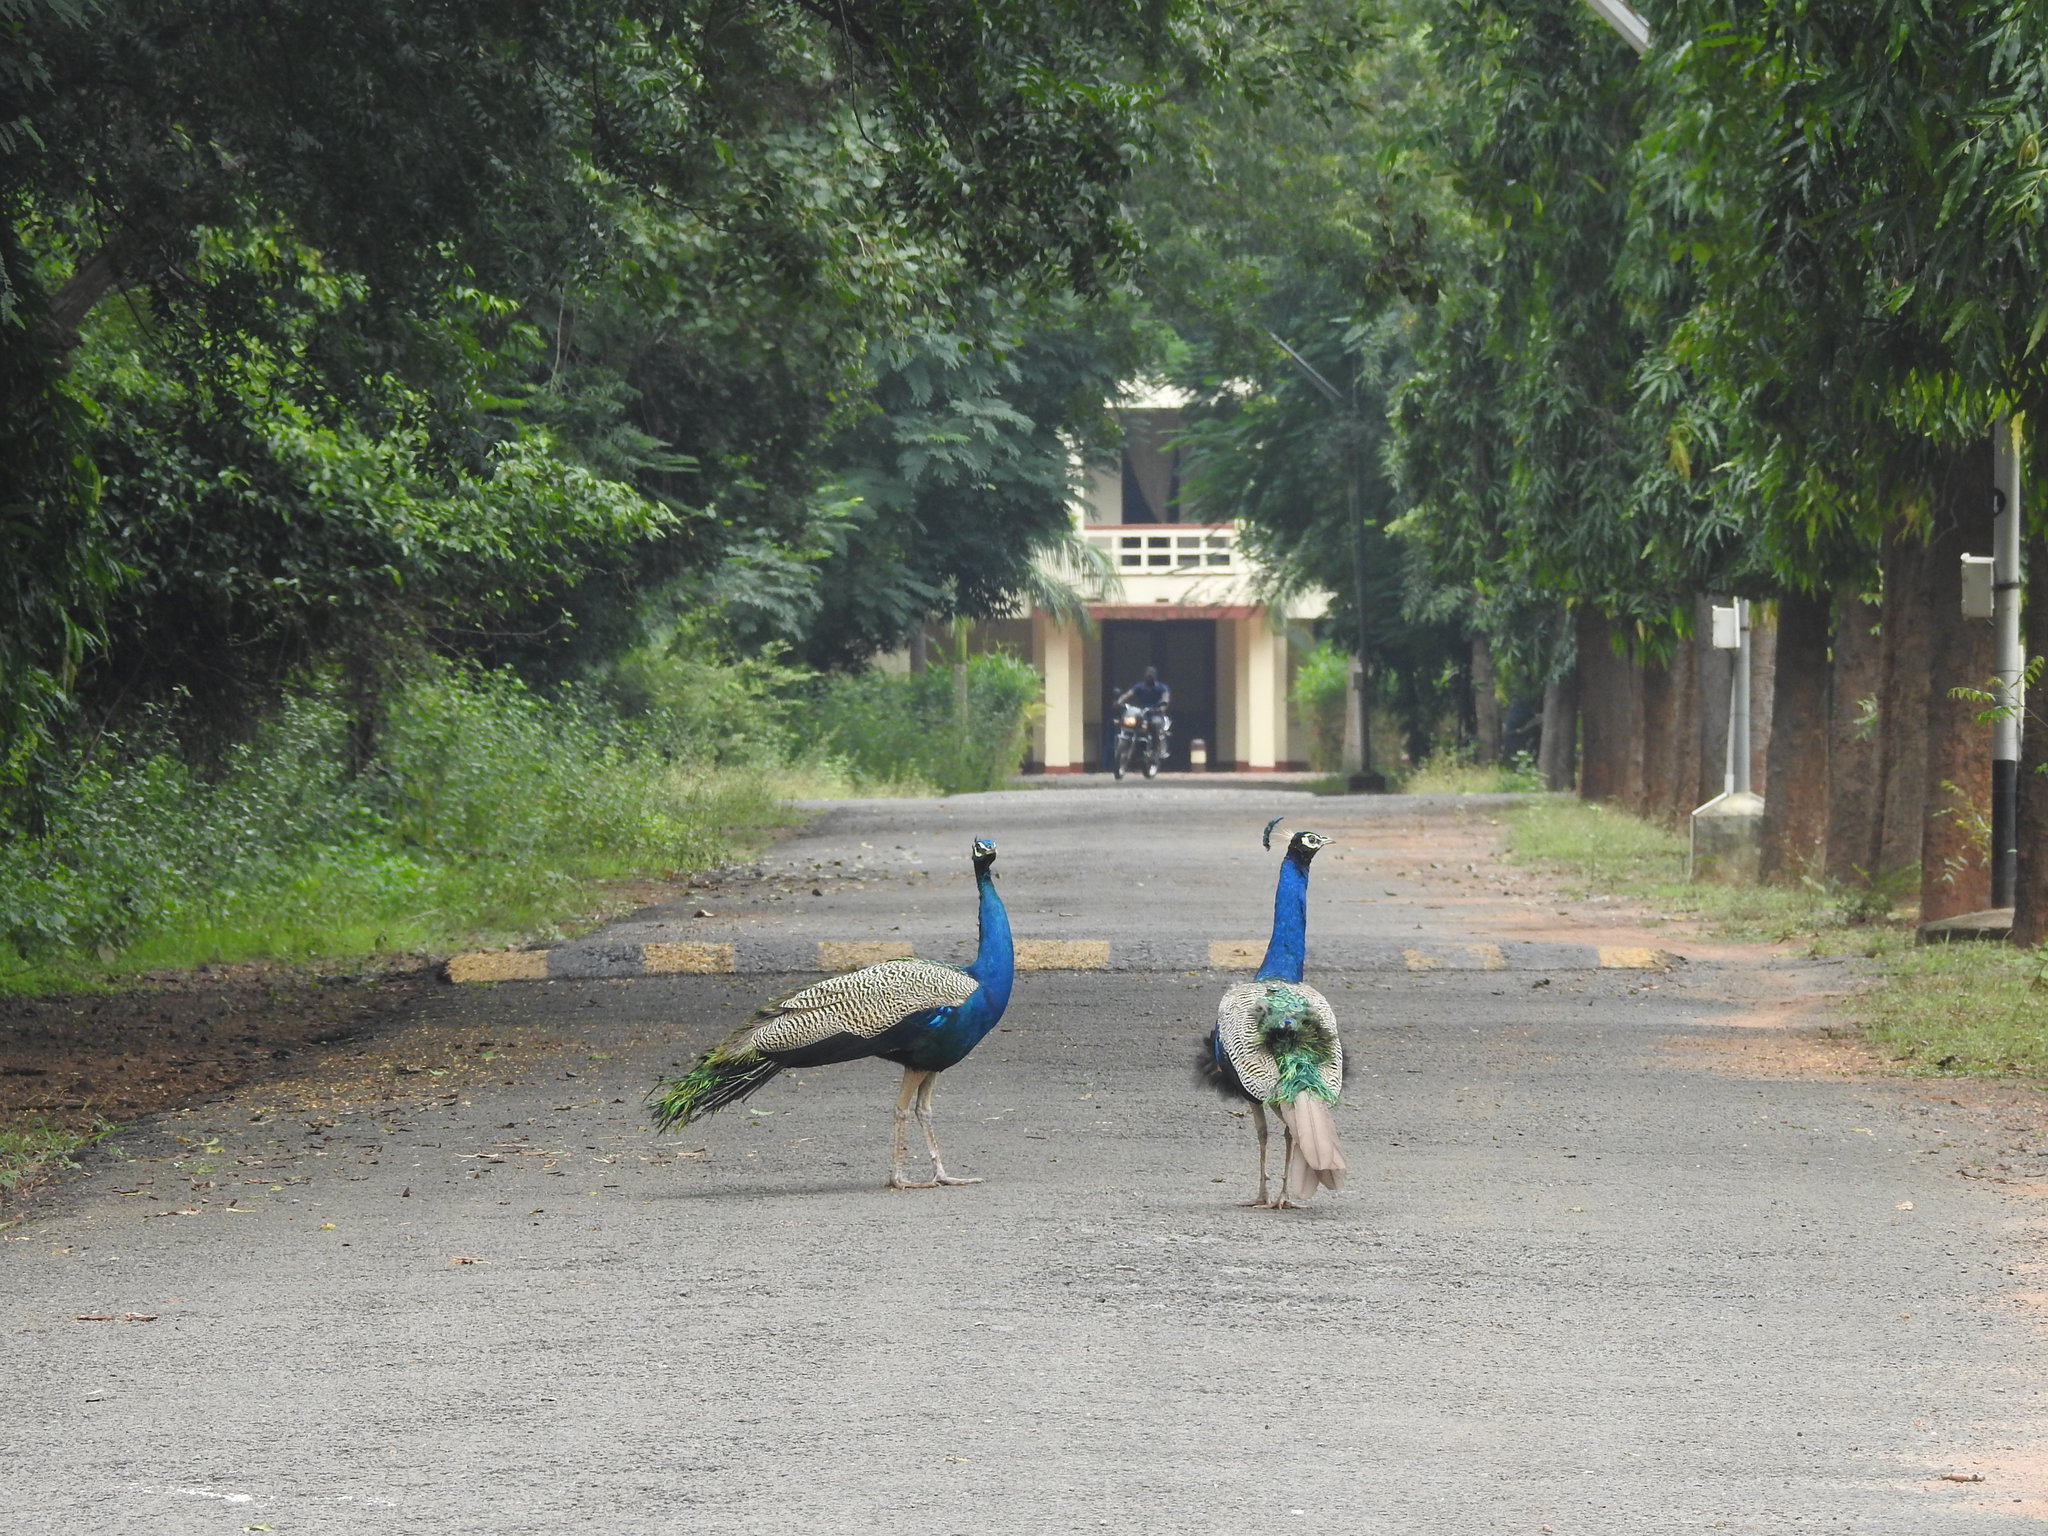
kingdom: Animalia
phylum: Chordata
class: Aves
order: Galliformes
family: Phasianidae
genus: Pavo
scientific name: Pavo cristatus
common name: Indian peafowl
